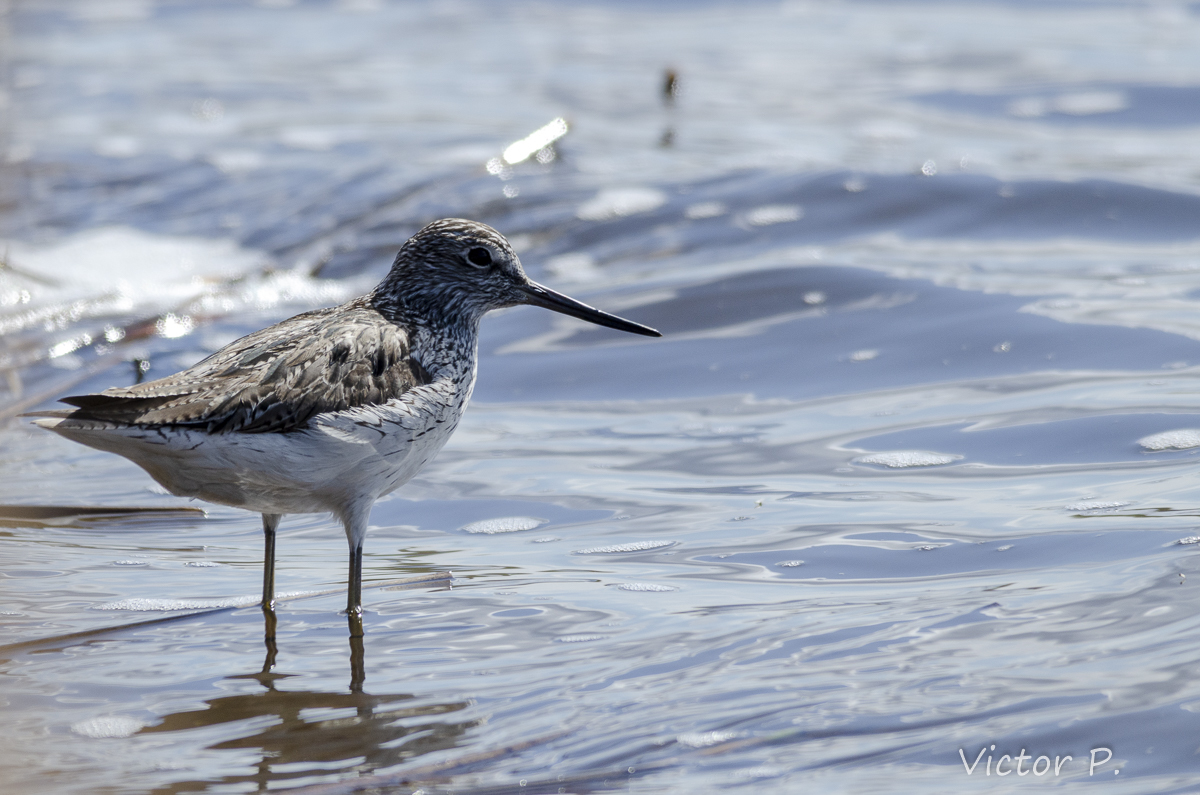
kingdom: Animalia
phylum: Chordata
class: Aves
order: Charadriiformes
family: Scolopacidae
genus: Tringa
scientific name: Tringa nebularia
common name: Common greenshank
